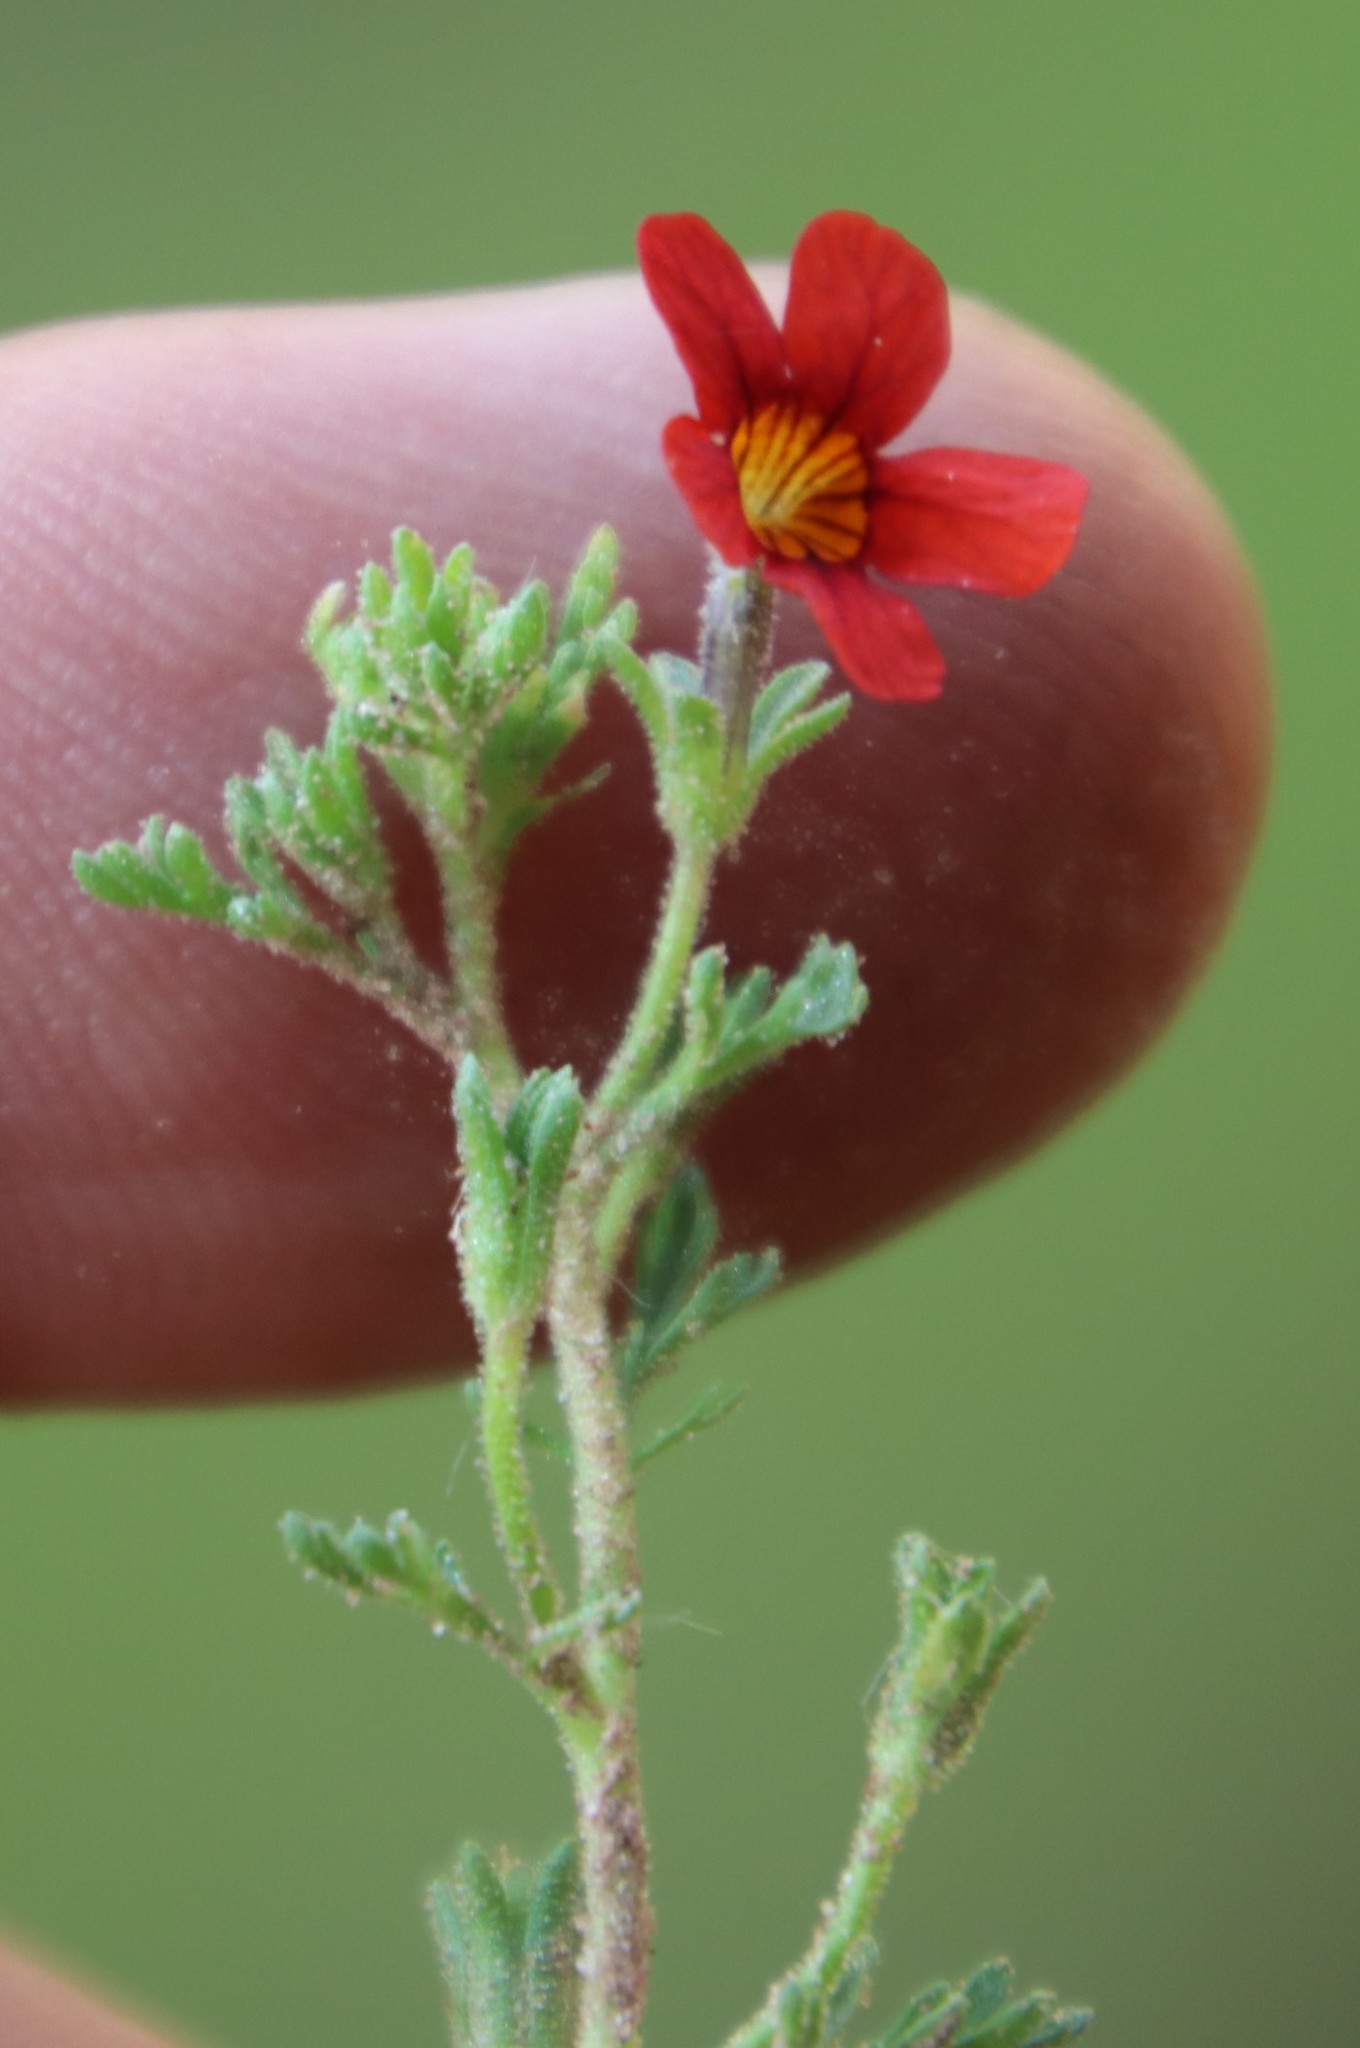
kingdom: Plantae
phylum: Tracheophyta
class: Magnoliopsida
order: Lamiales
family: Scrophulariaceae
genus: Jamesbrittenia
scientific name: Jamesbrittenia aurantiaca
